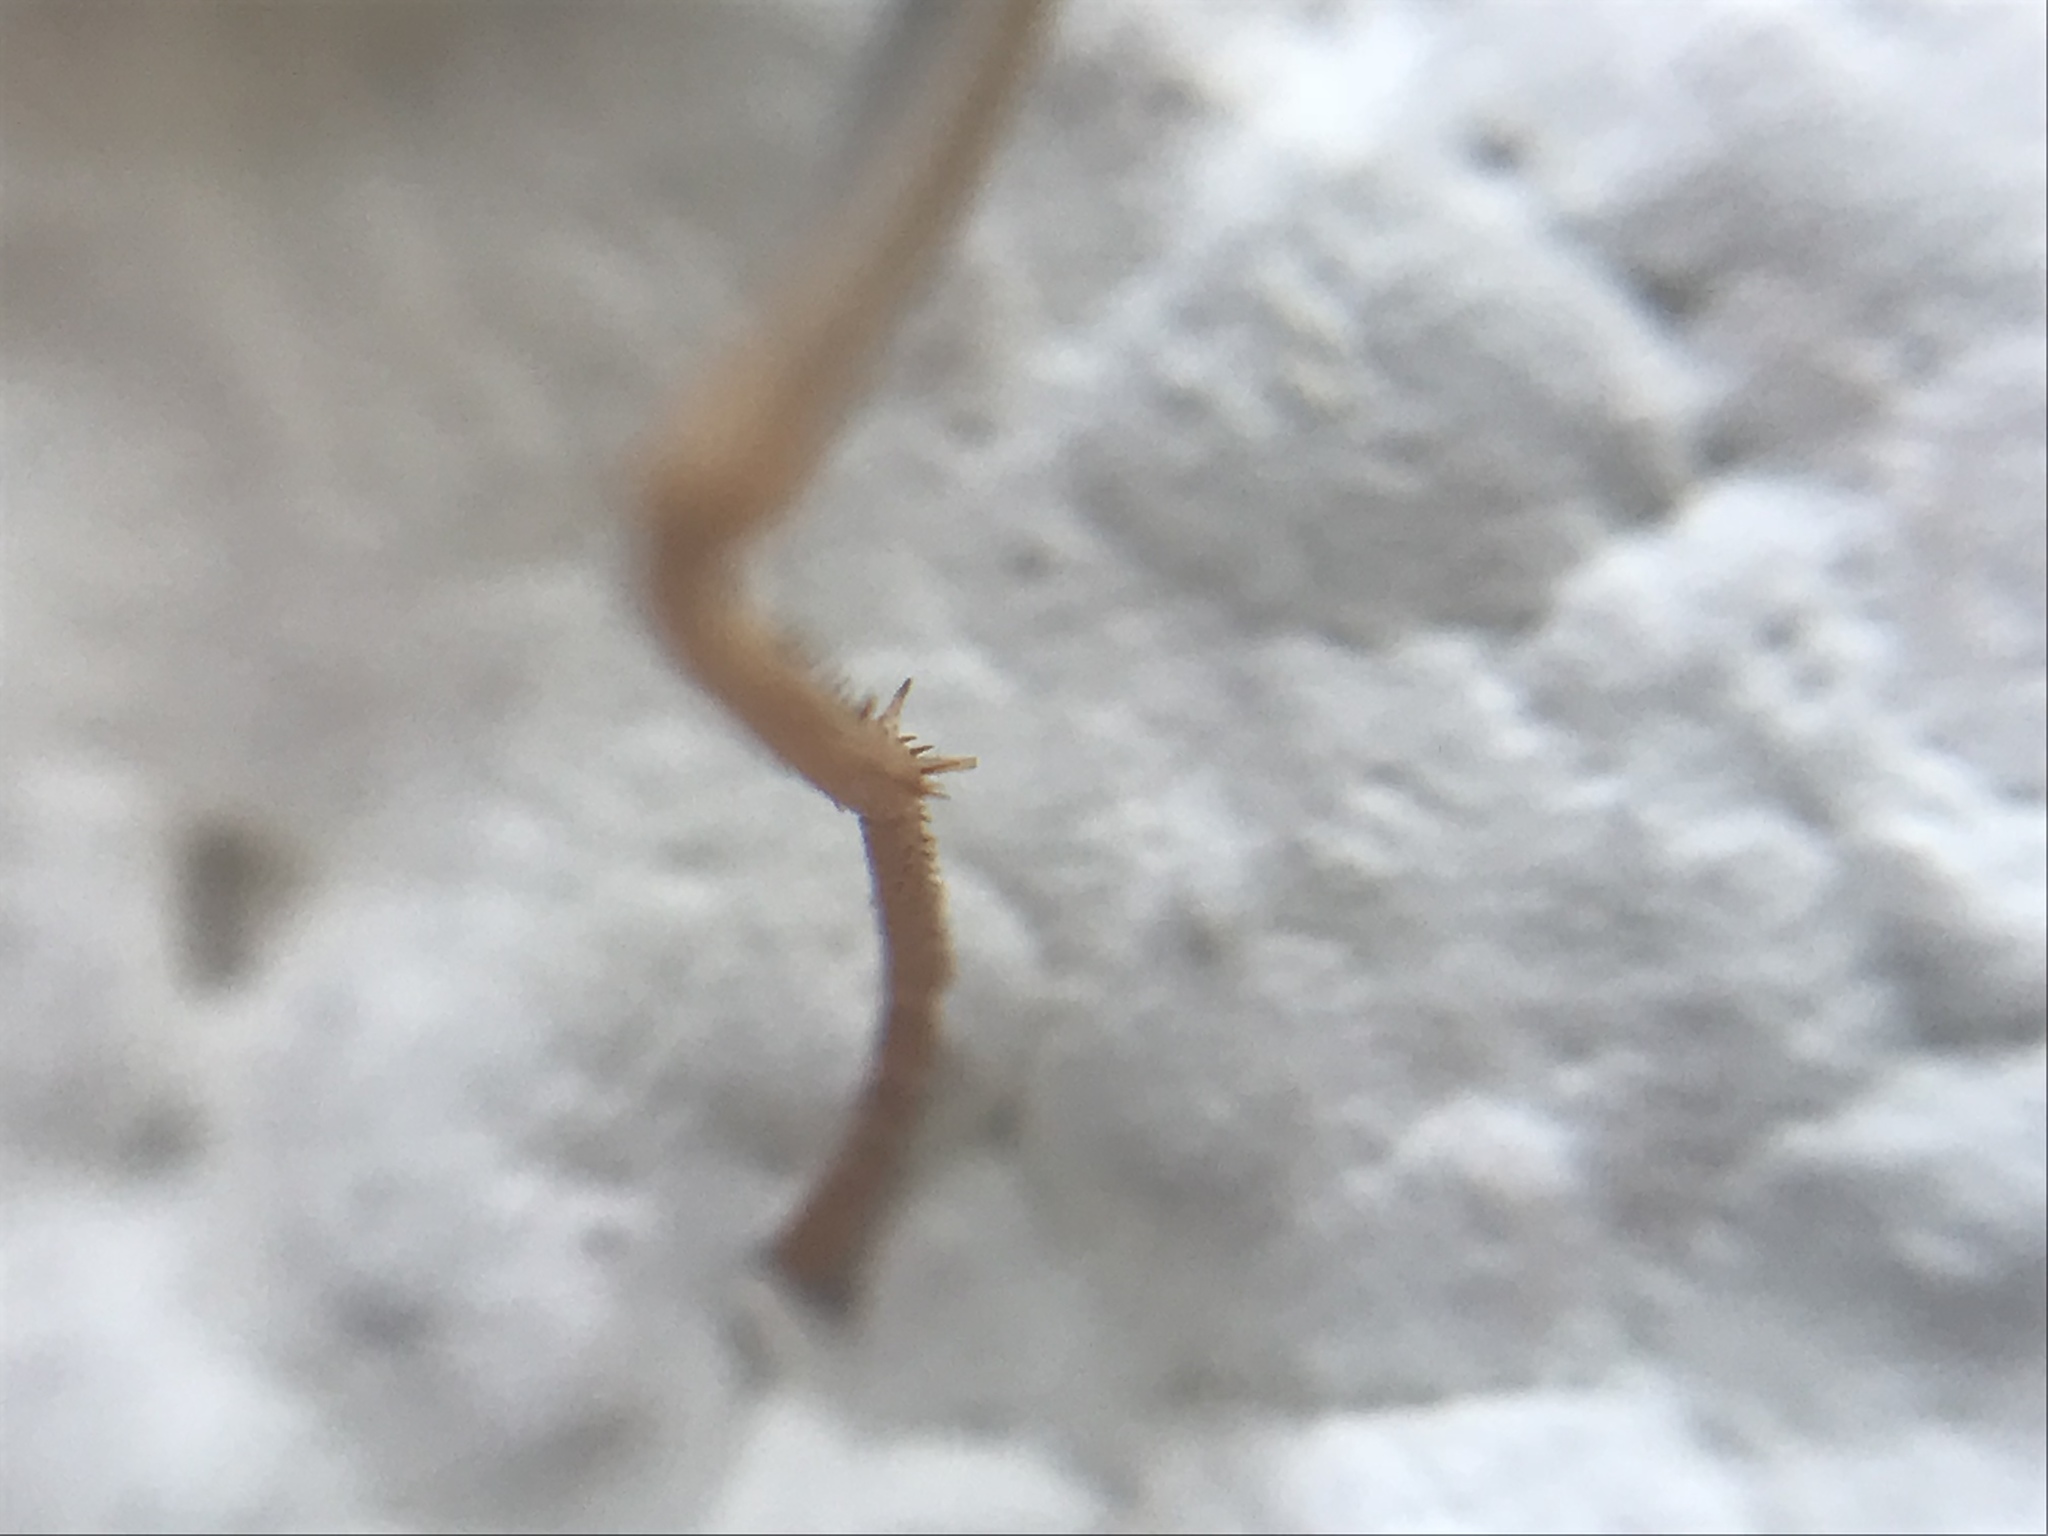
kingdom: Animalia
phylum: Arthropoda
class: Insecta
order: Lepidoptera
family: Nymphalidae
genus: Asterocampa
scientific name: Asterocampa clyton
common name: Tawny emperor
